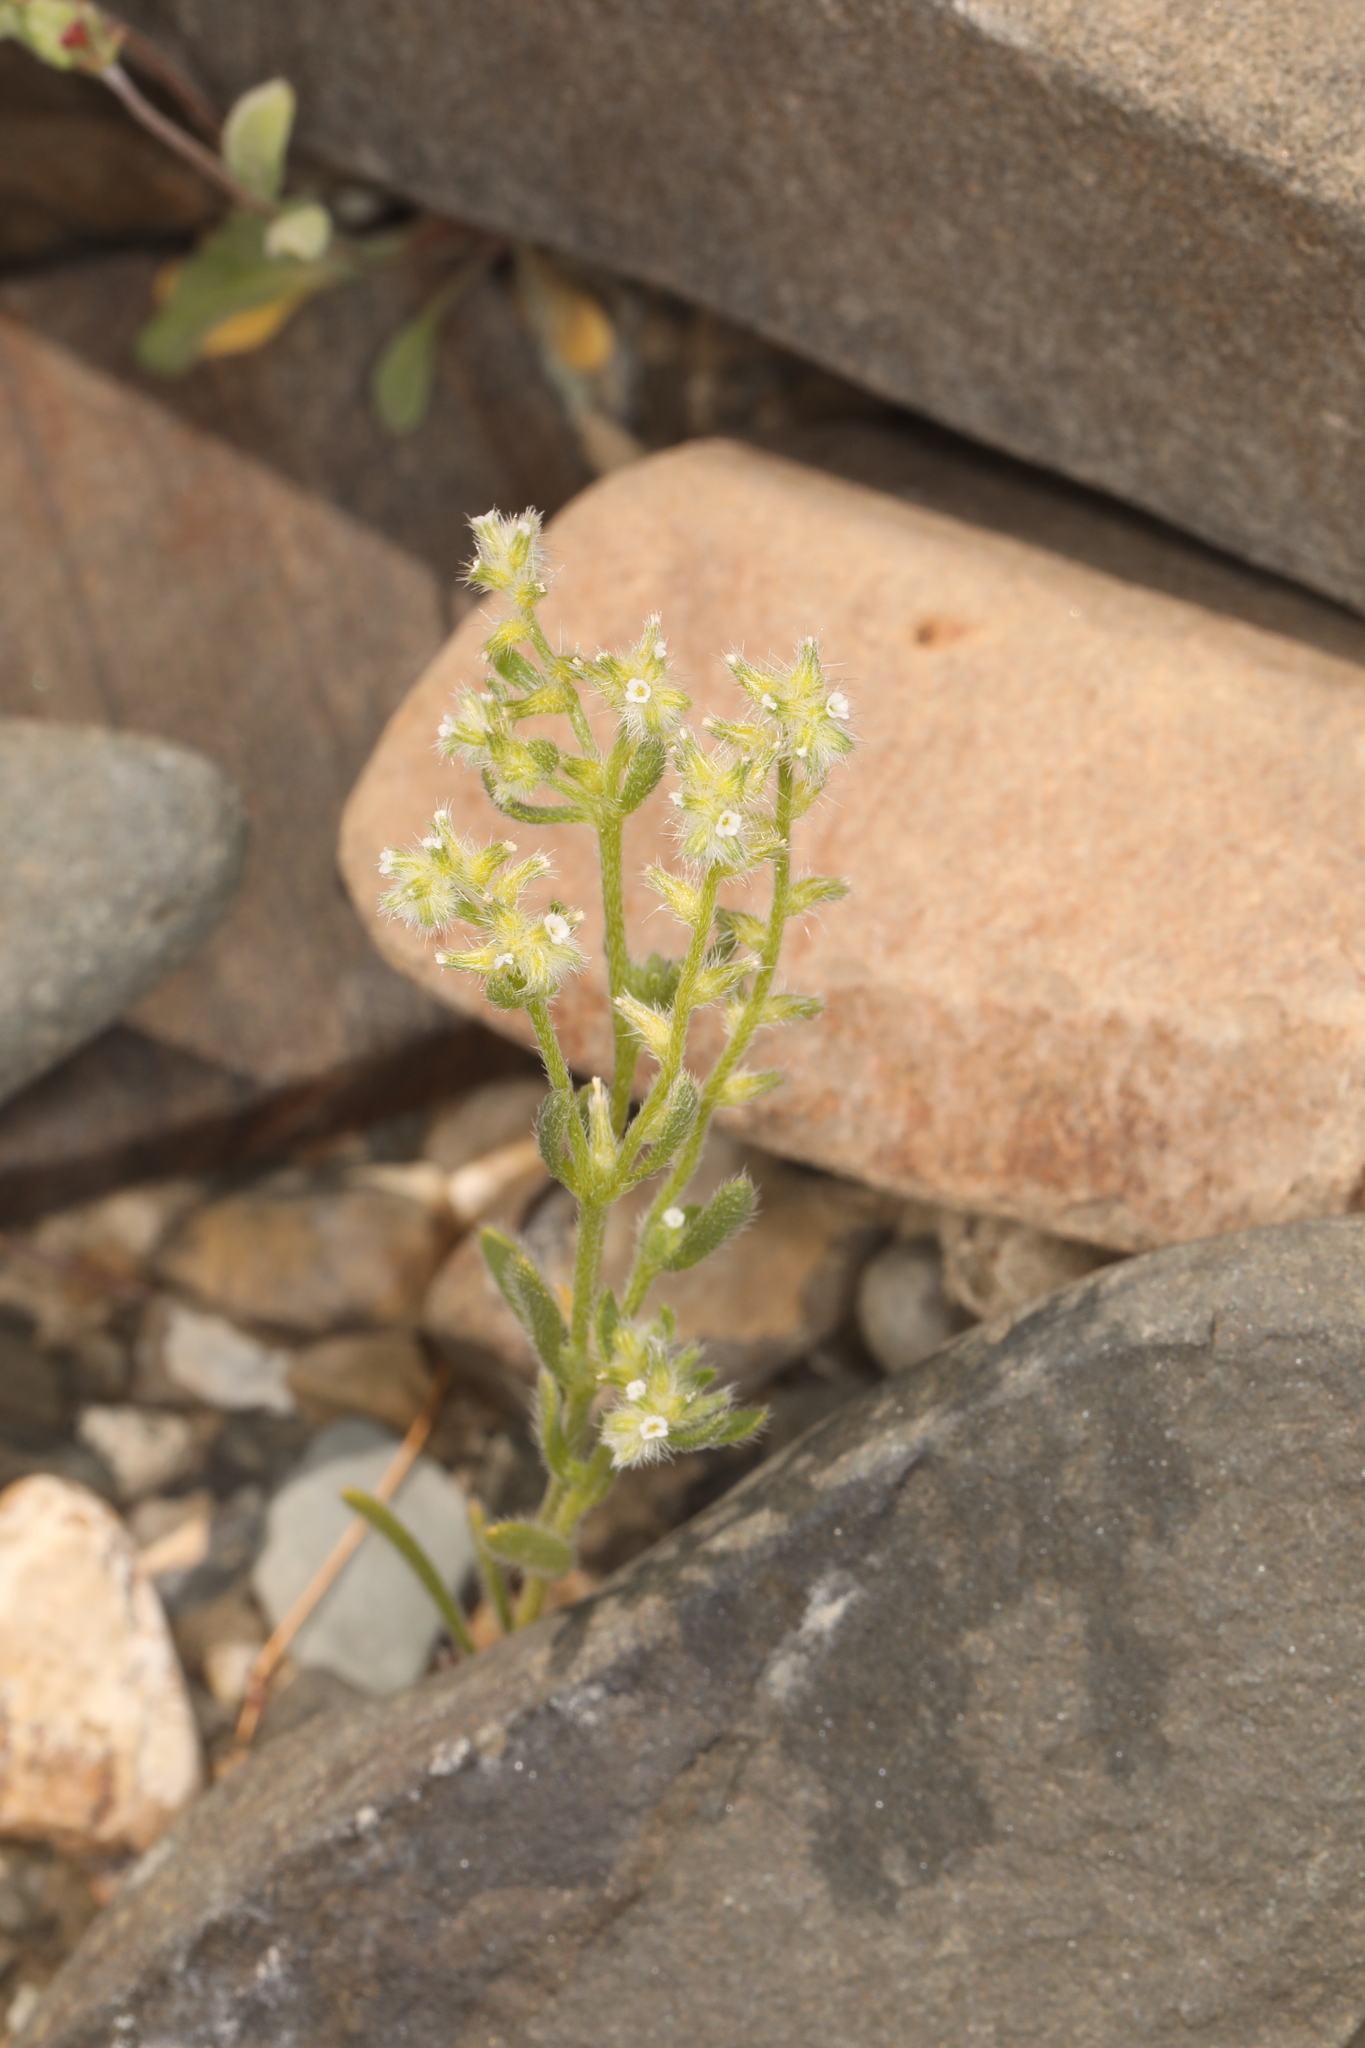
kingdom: Plantae
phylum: Tracheophyta
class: Magnoliopsida
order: Boraginales
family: Boraginaceae
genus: Cryptantha
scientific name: Cryptantha recurvata
